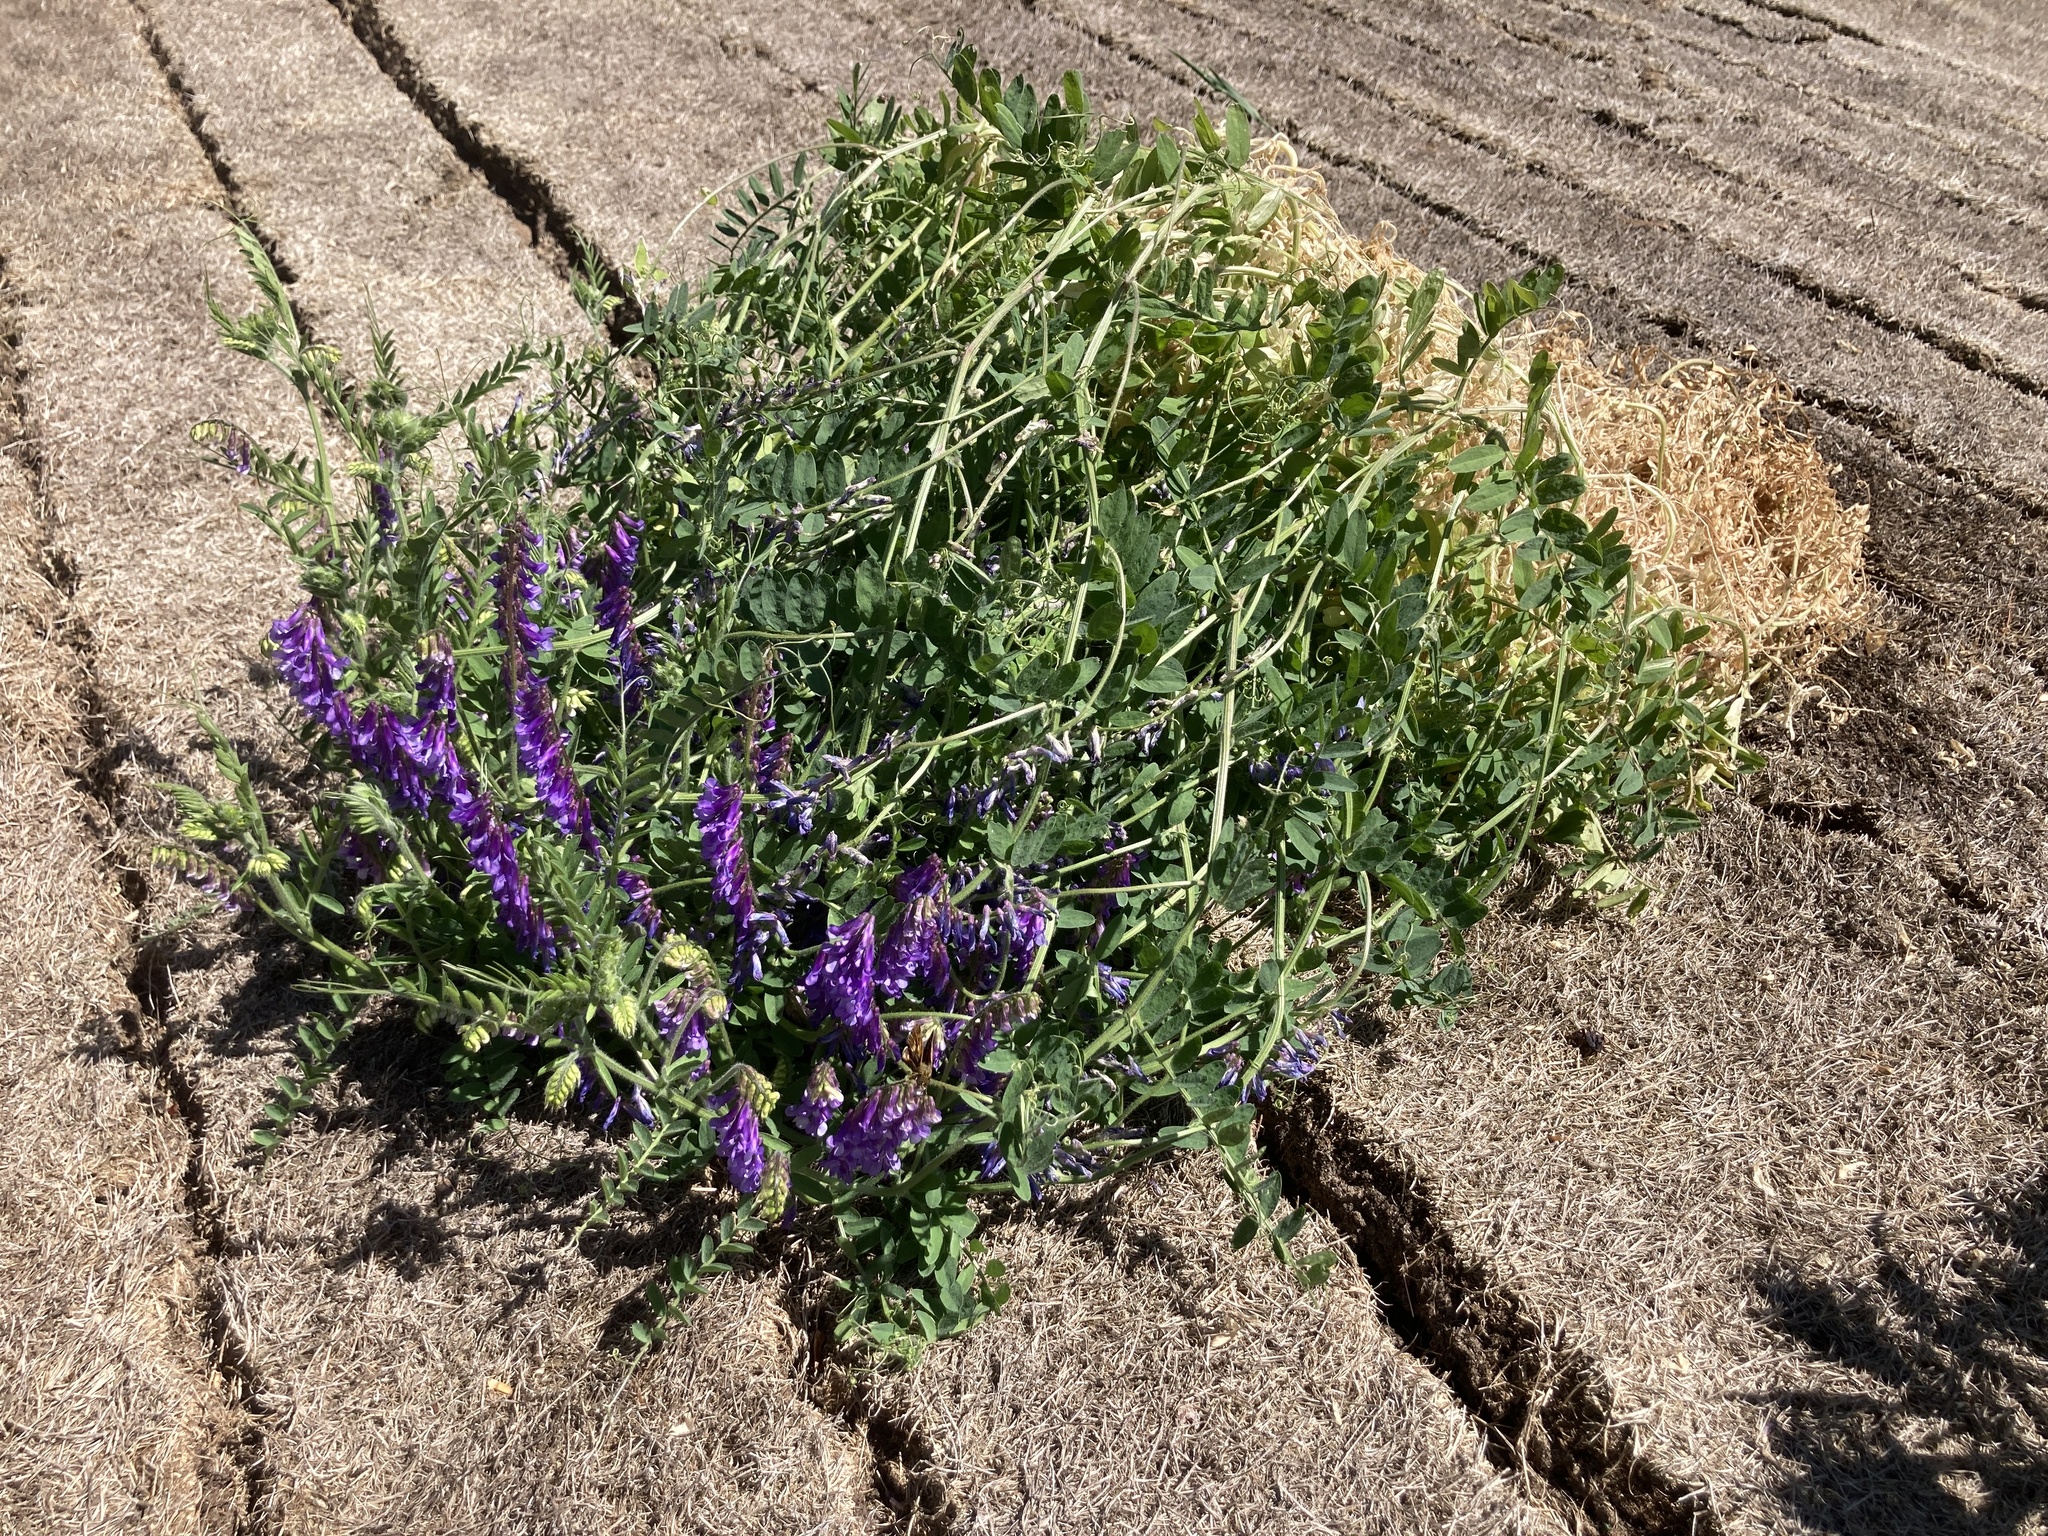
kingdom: Plantae
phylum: Tracheophyta
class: Magnoliopsida
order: Fabales
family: Fabaceae
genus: Vicia
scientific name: Vicia villosa
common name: Fodder vetch
